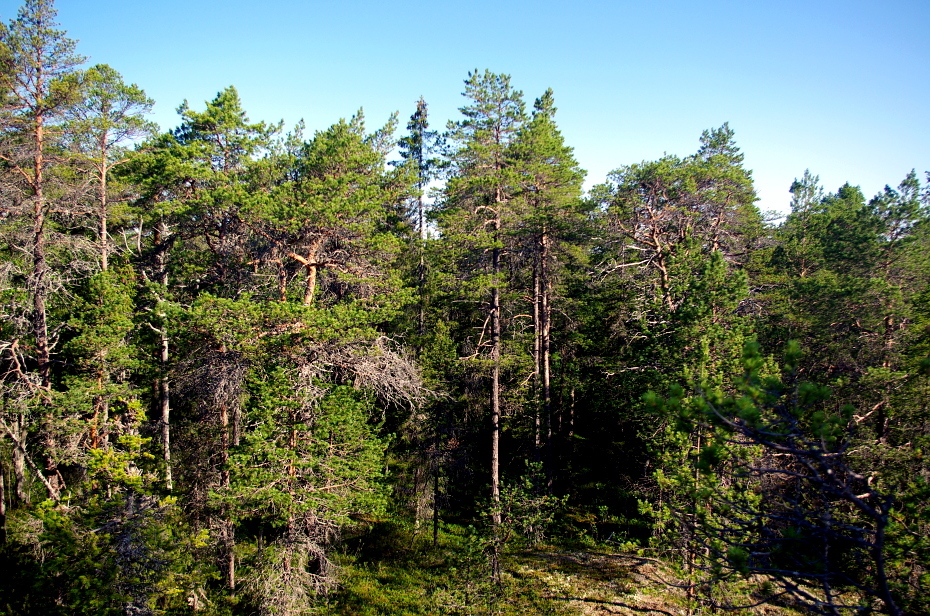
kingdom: Plantae
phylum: Tracheophyta
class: Pinopsida
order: Pinales
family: Pinaceae
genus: Pinus
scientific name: Pinus sylvestris
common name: Scots pine
